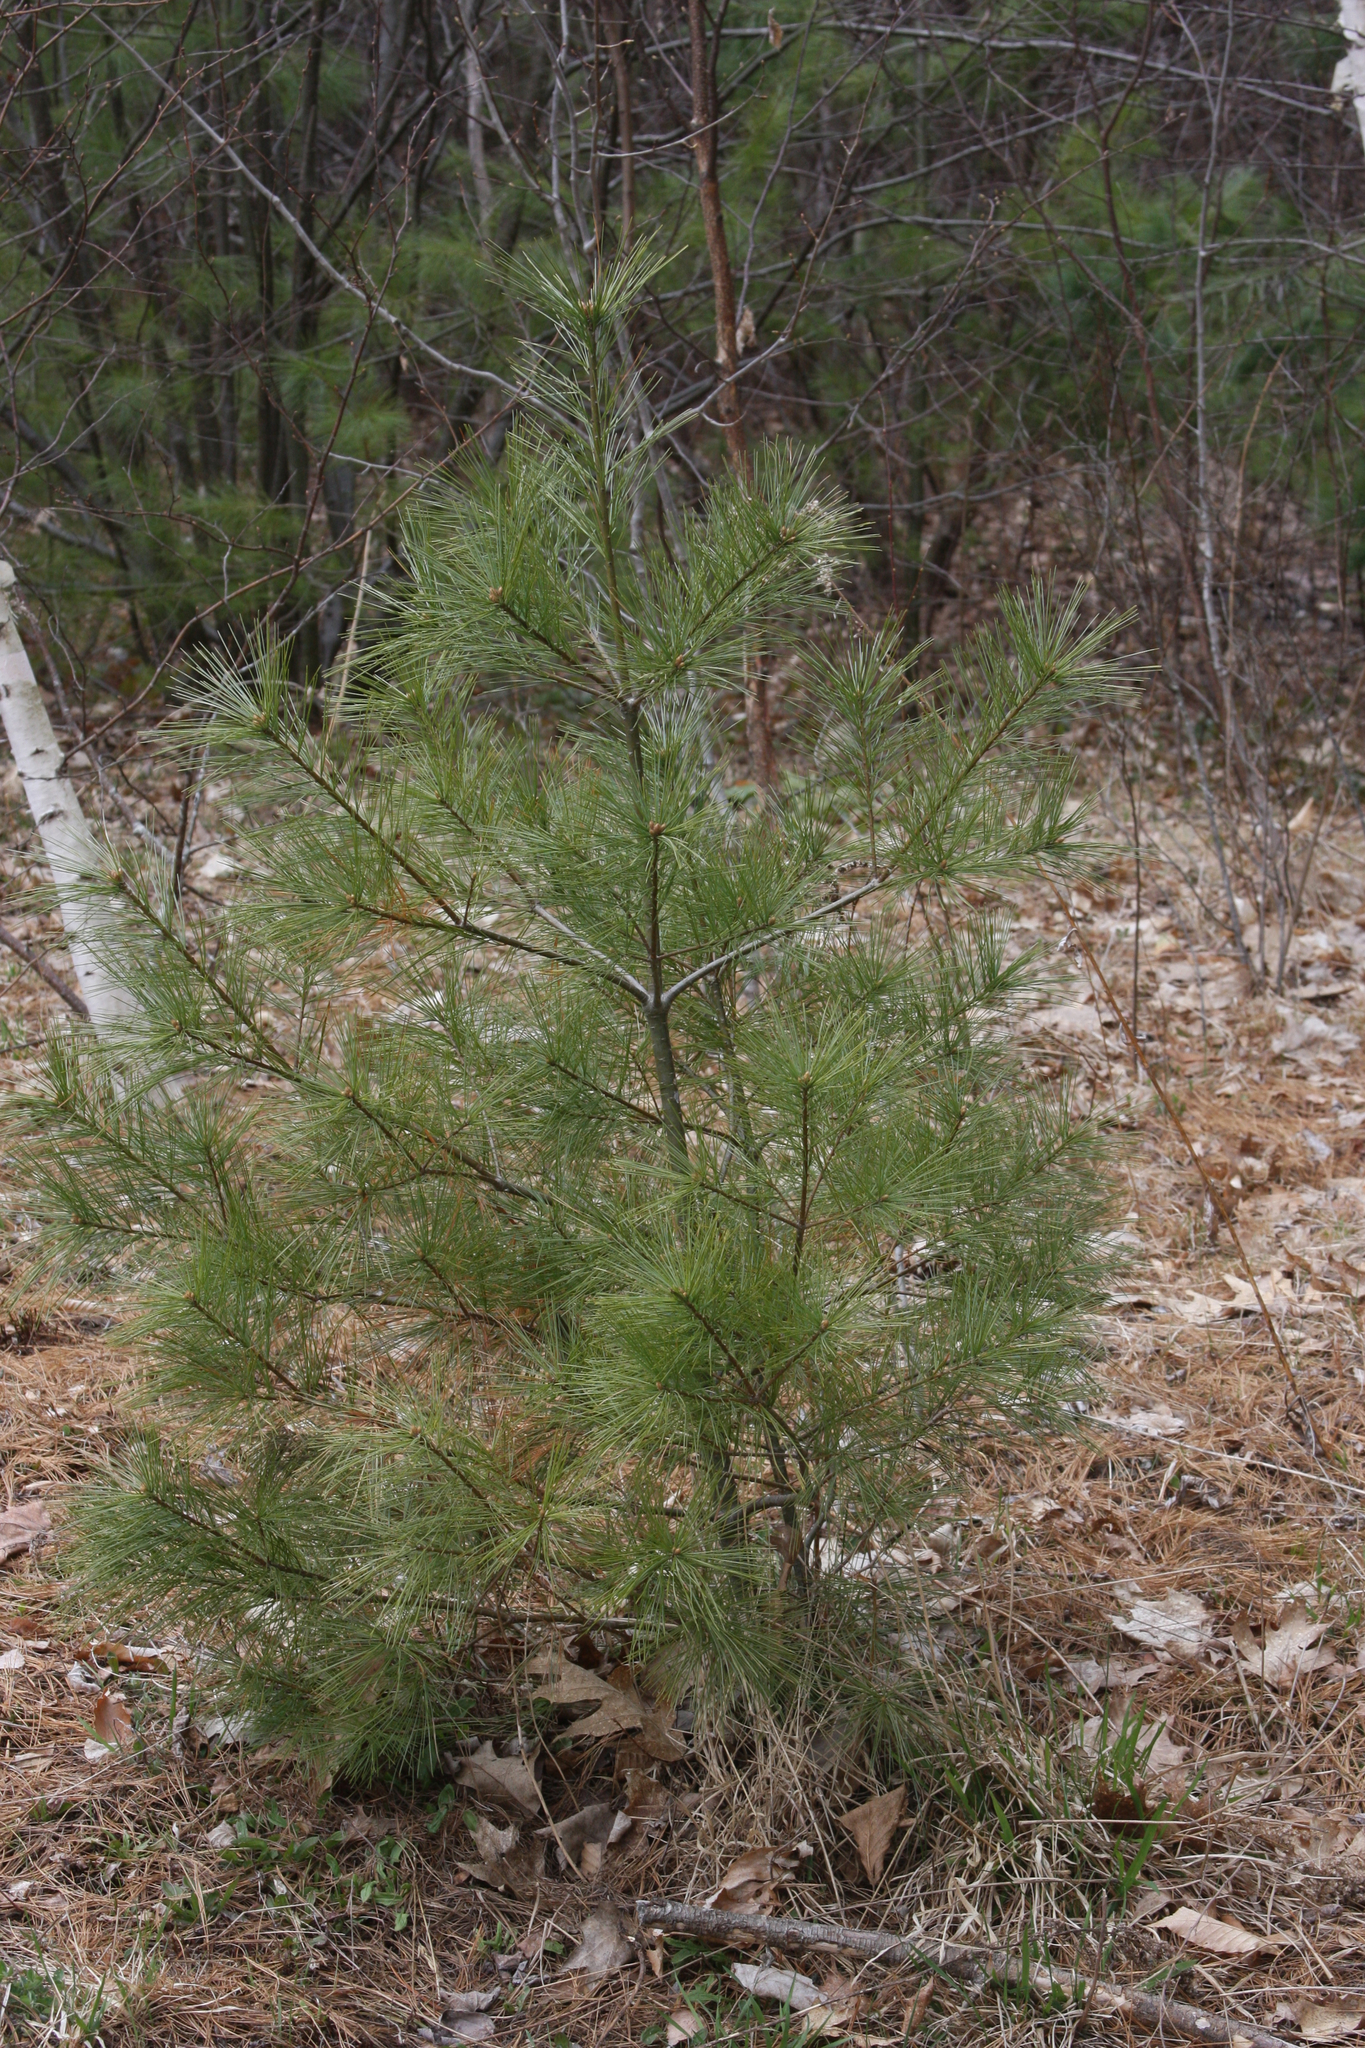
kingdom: Plantae
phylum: Tracheophyta
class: Pinopsida
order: Pinales
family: Pinaceae
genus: Pinus
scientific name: Pinus strobus
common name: Weymouth pine
